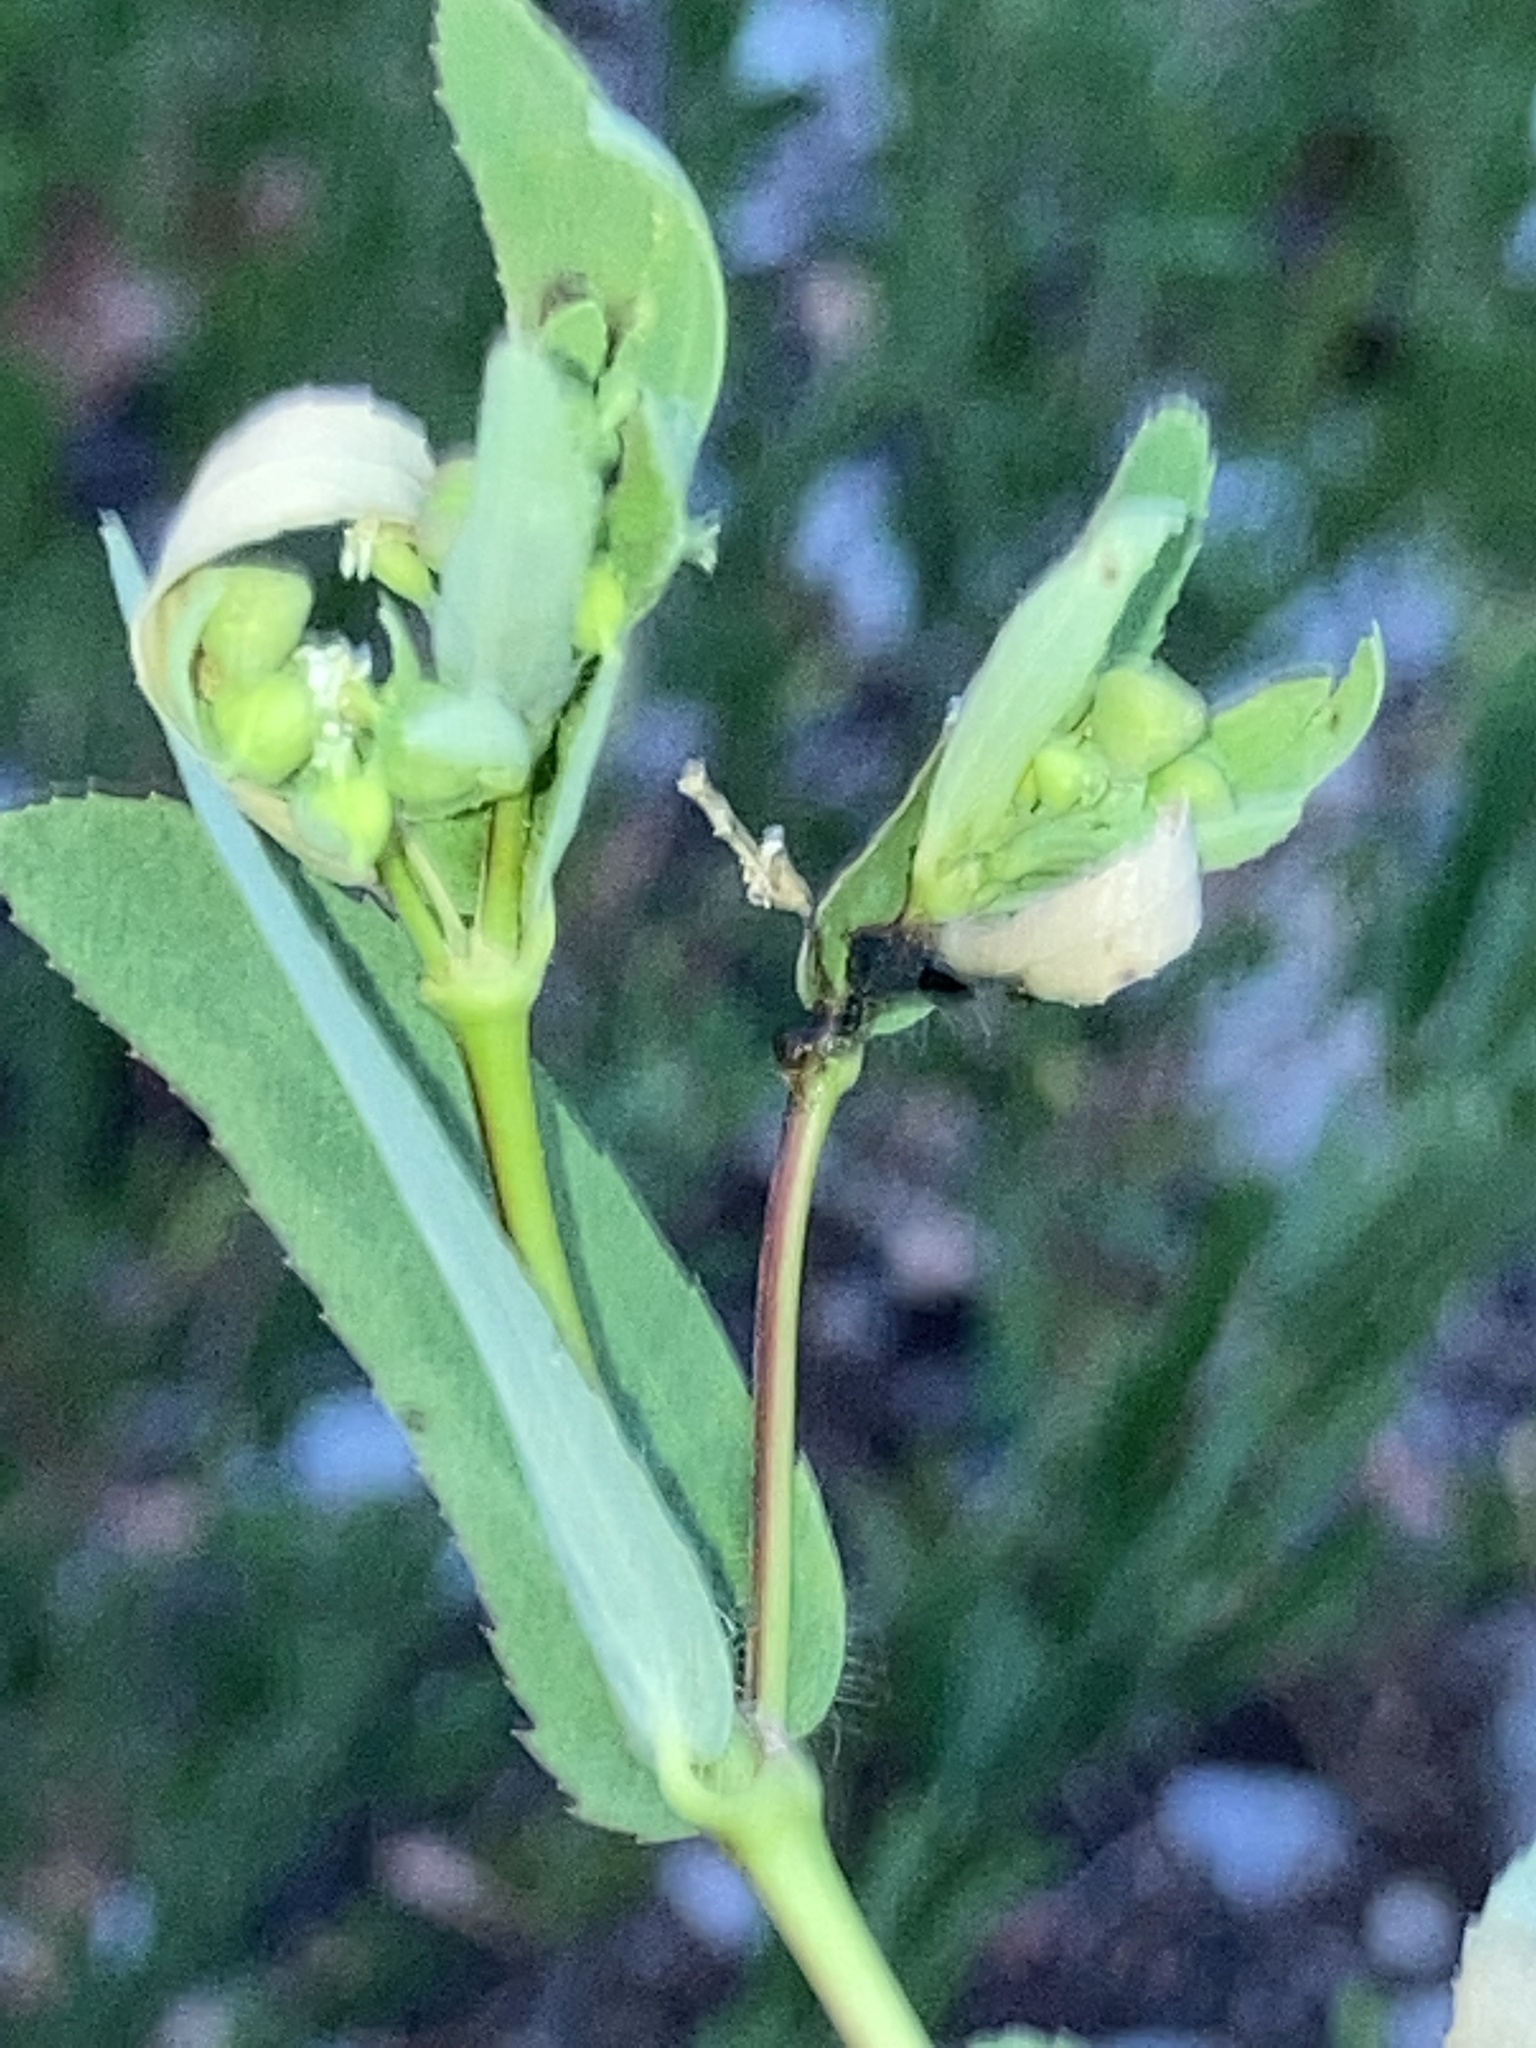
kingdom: Plantae
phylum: Tracheophyta
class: Magnoliopsida
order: Malpighiales
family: Euphorbiaceae
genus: Euphorbia
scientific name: Euphorbia nutans
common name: Eyebane
